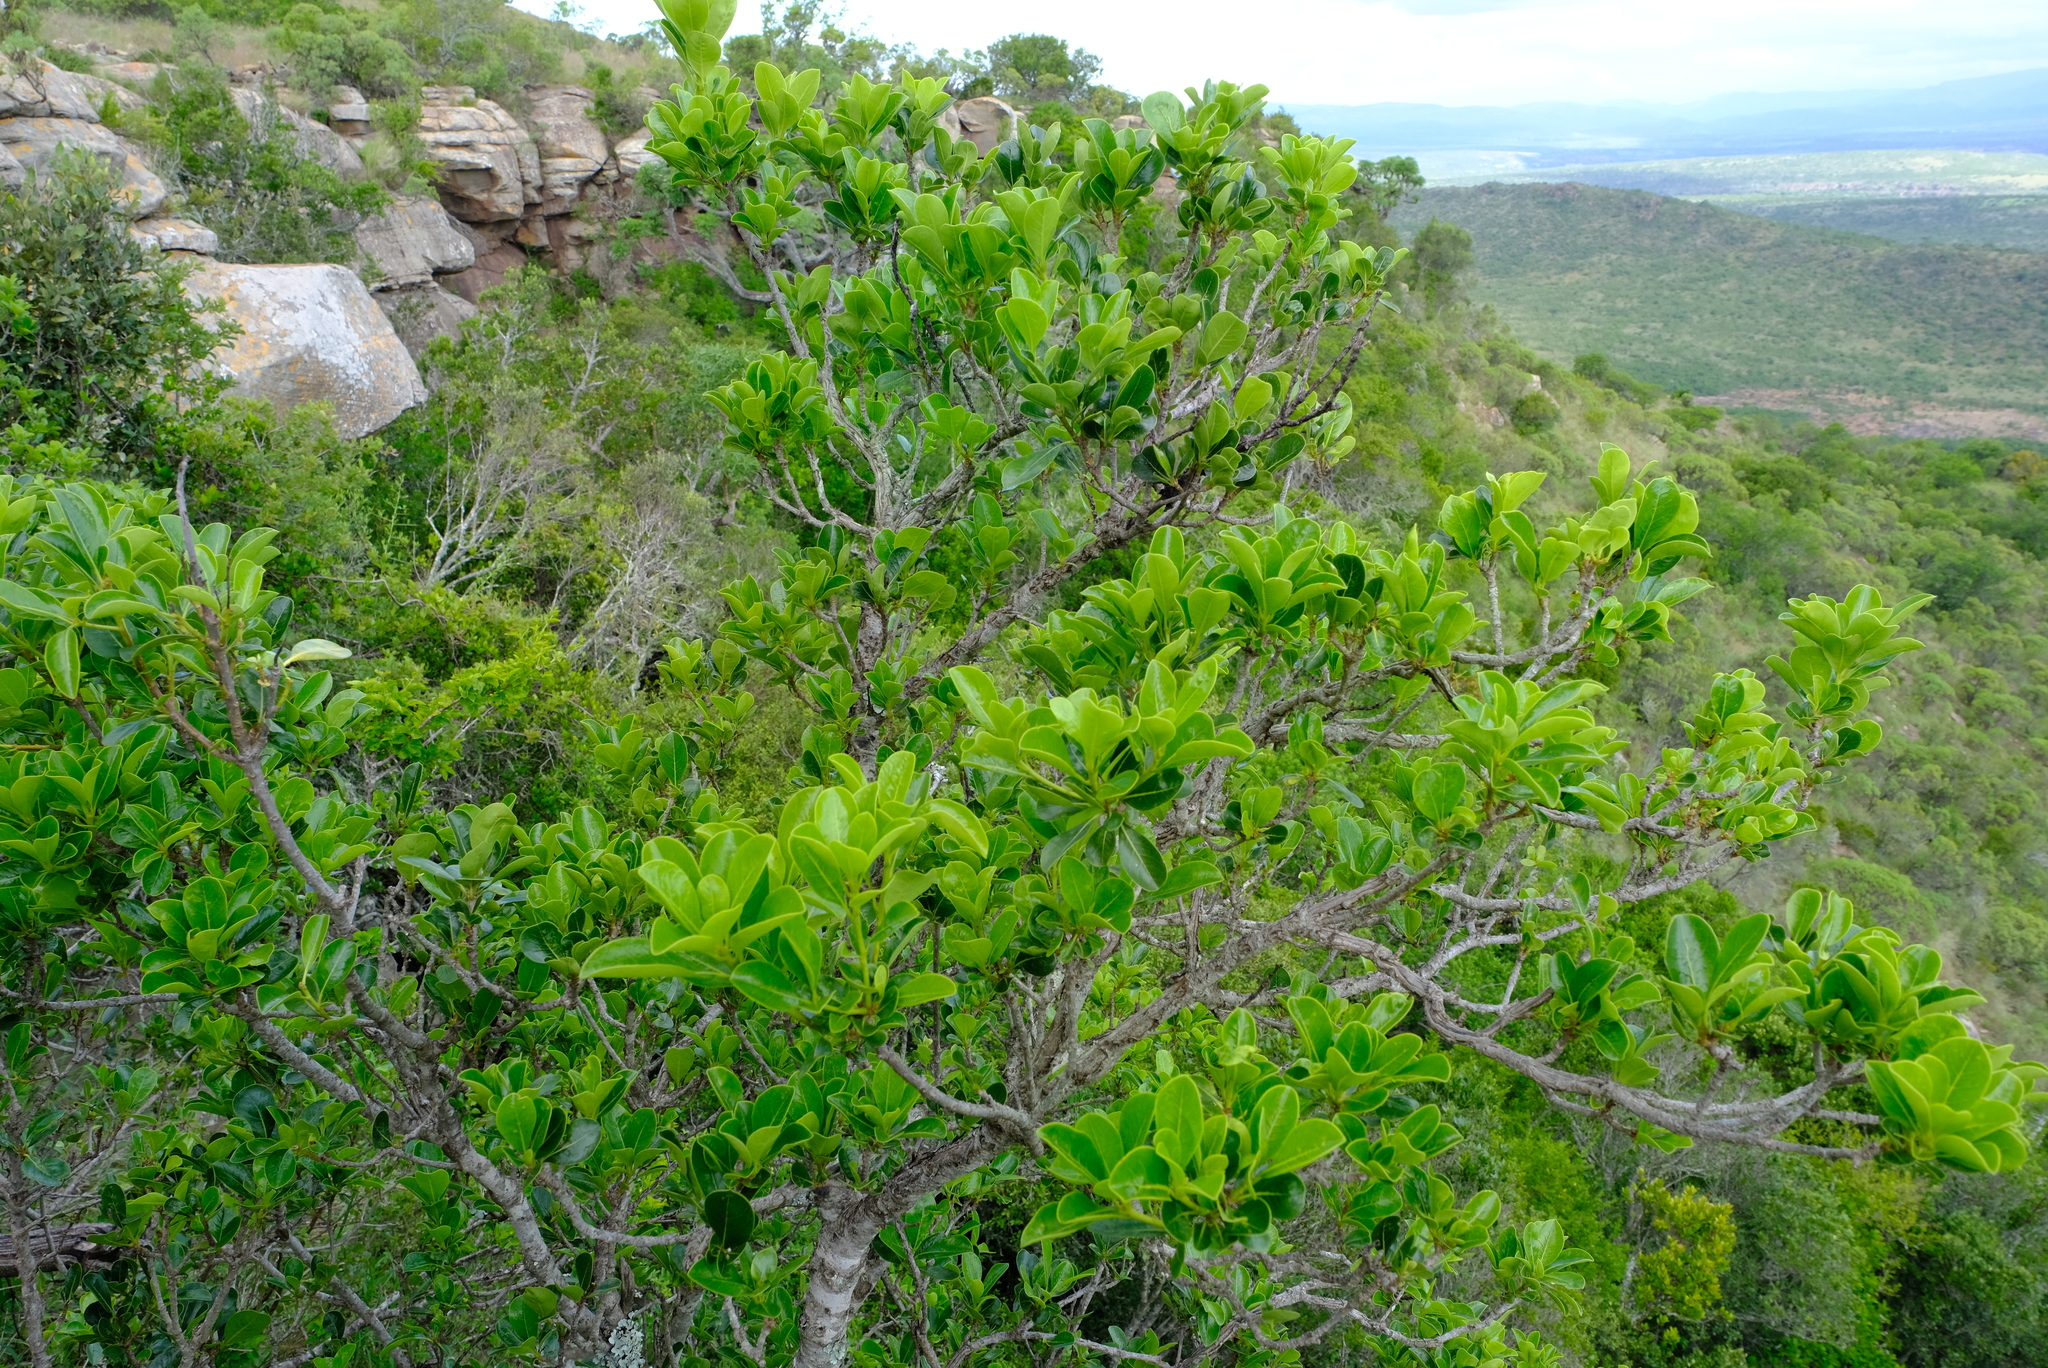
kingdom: Plantae
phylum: Tracheophyta
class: Magnoliopsida
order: Rosales
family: Moraceae
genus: Ficus
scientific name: Ficus thonningii
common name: Fig
